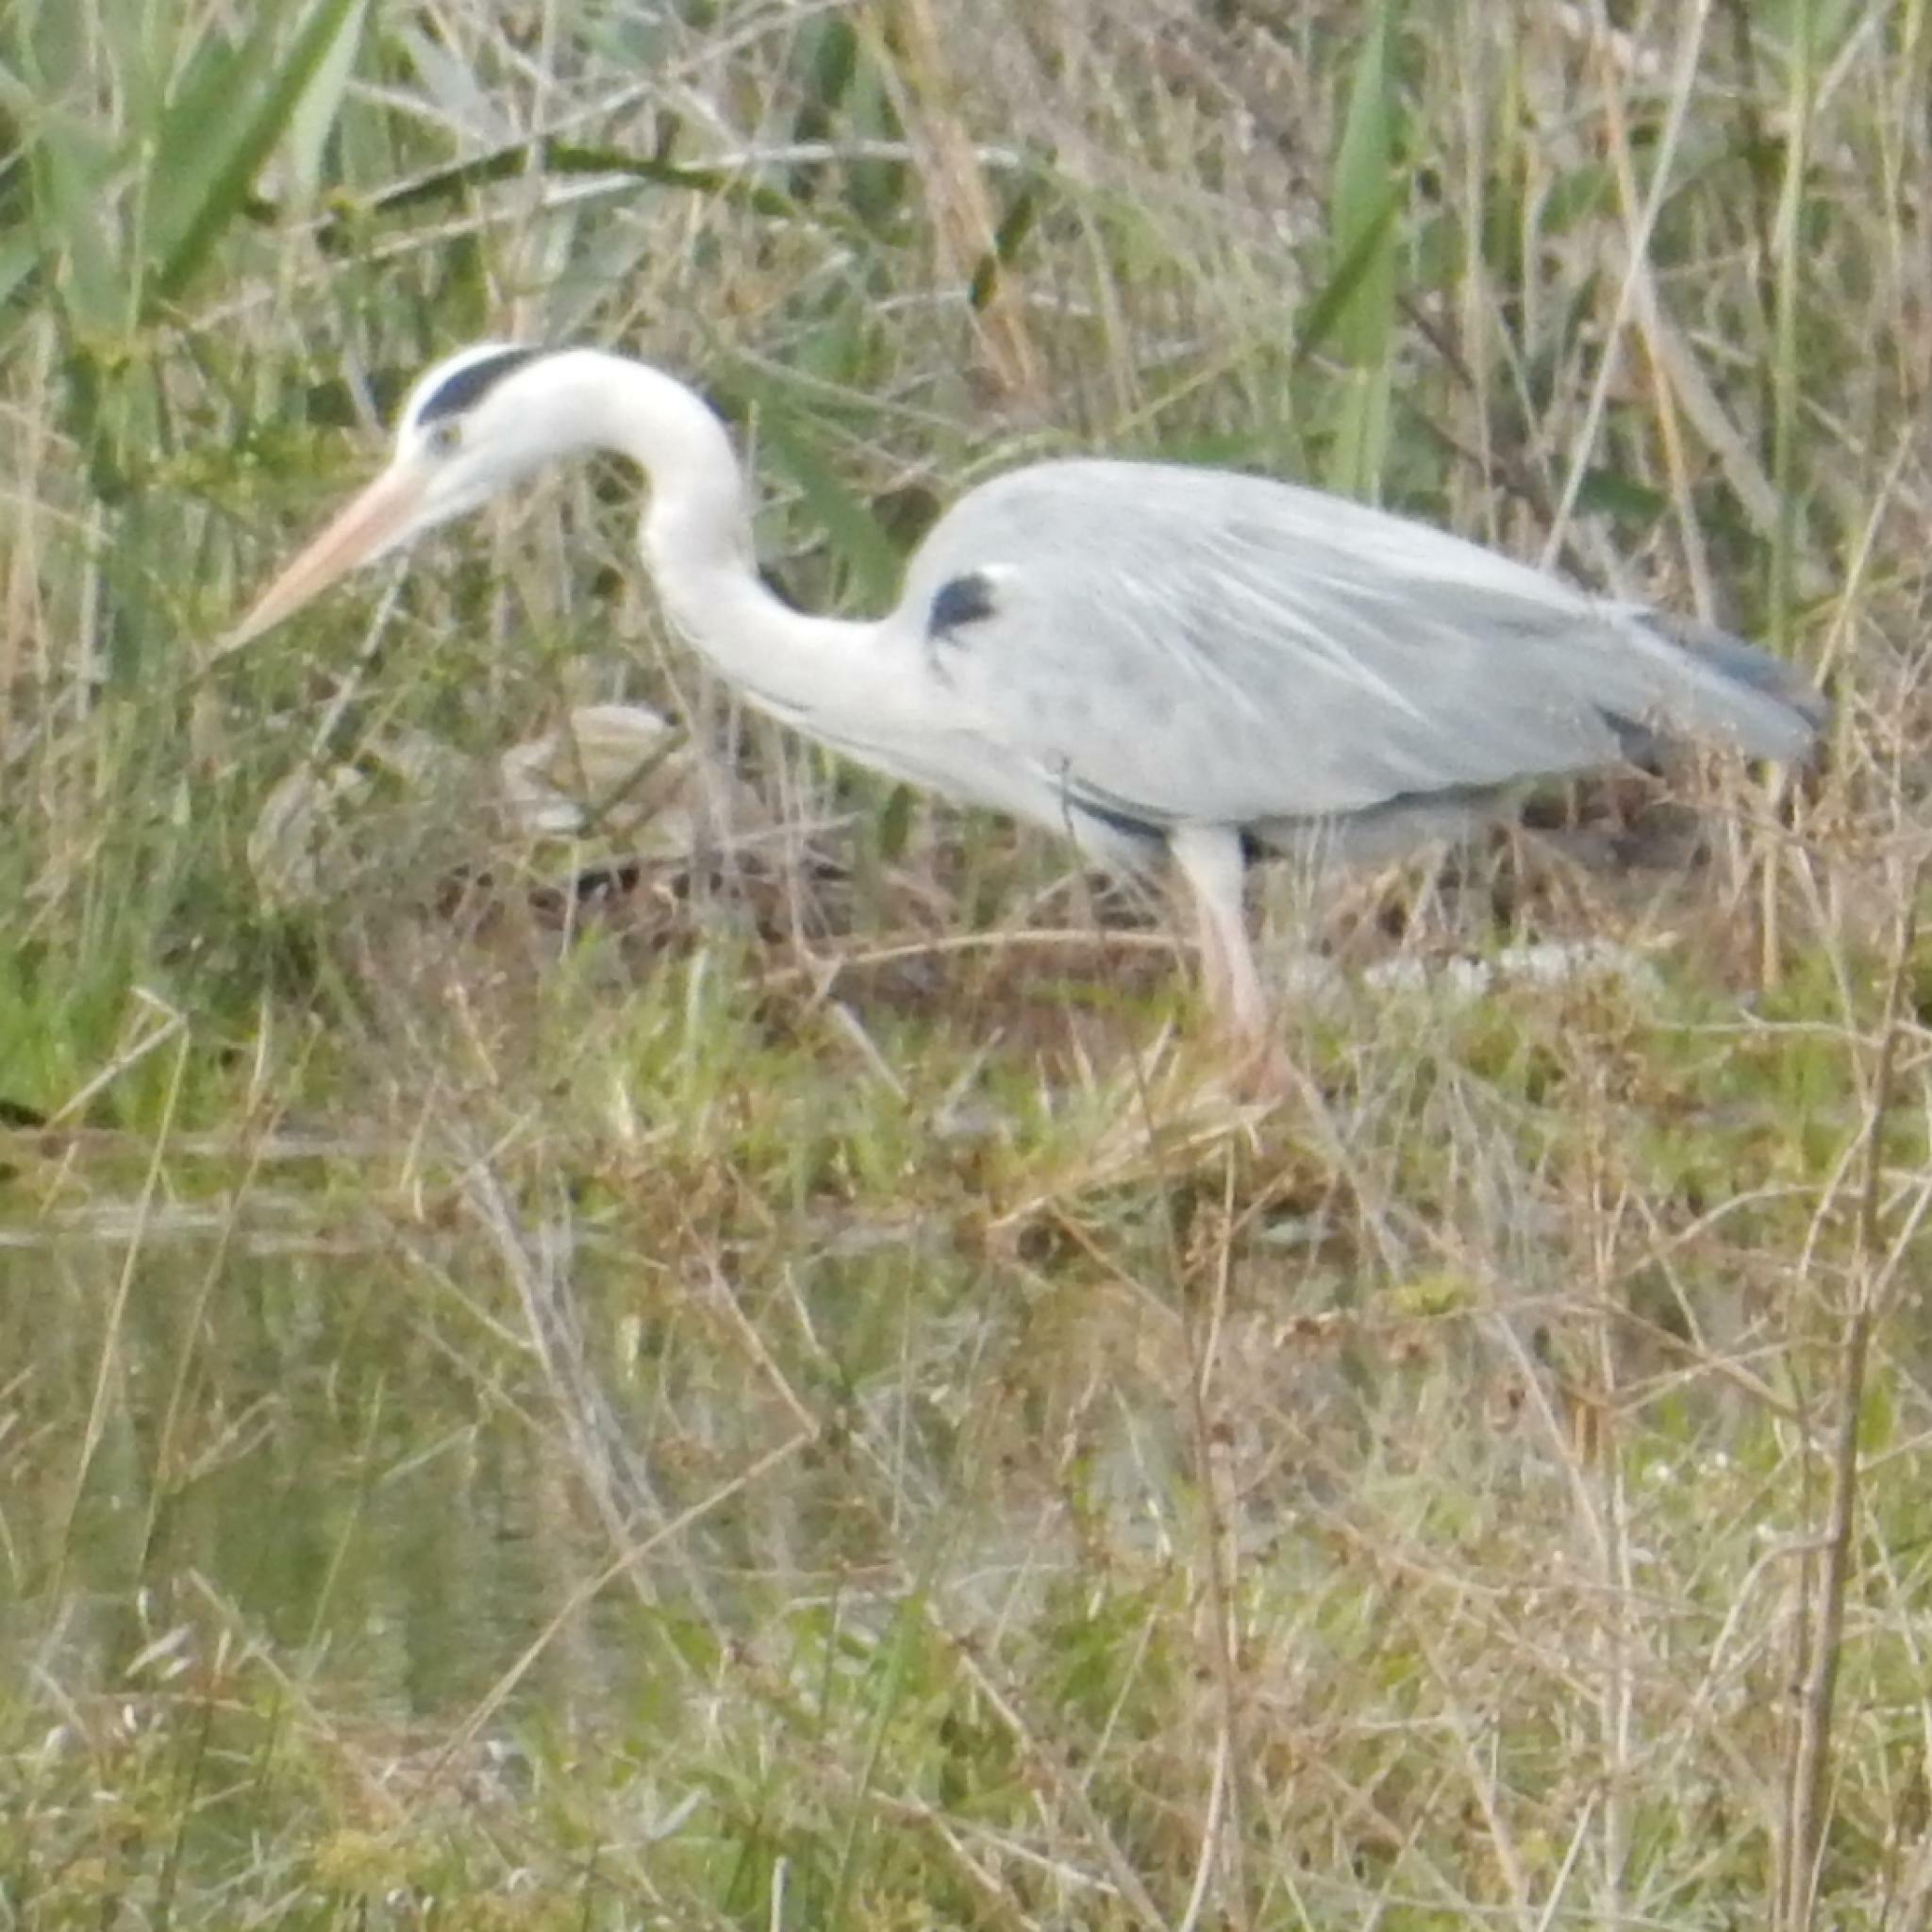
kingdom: Animalia
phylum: Chordata
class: Aves
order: Pelecaniformes
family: Ardeidae
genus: Ardea
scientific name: Ardea cinerea
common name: Grey heron
